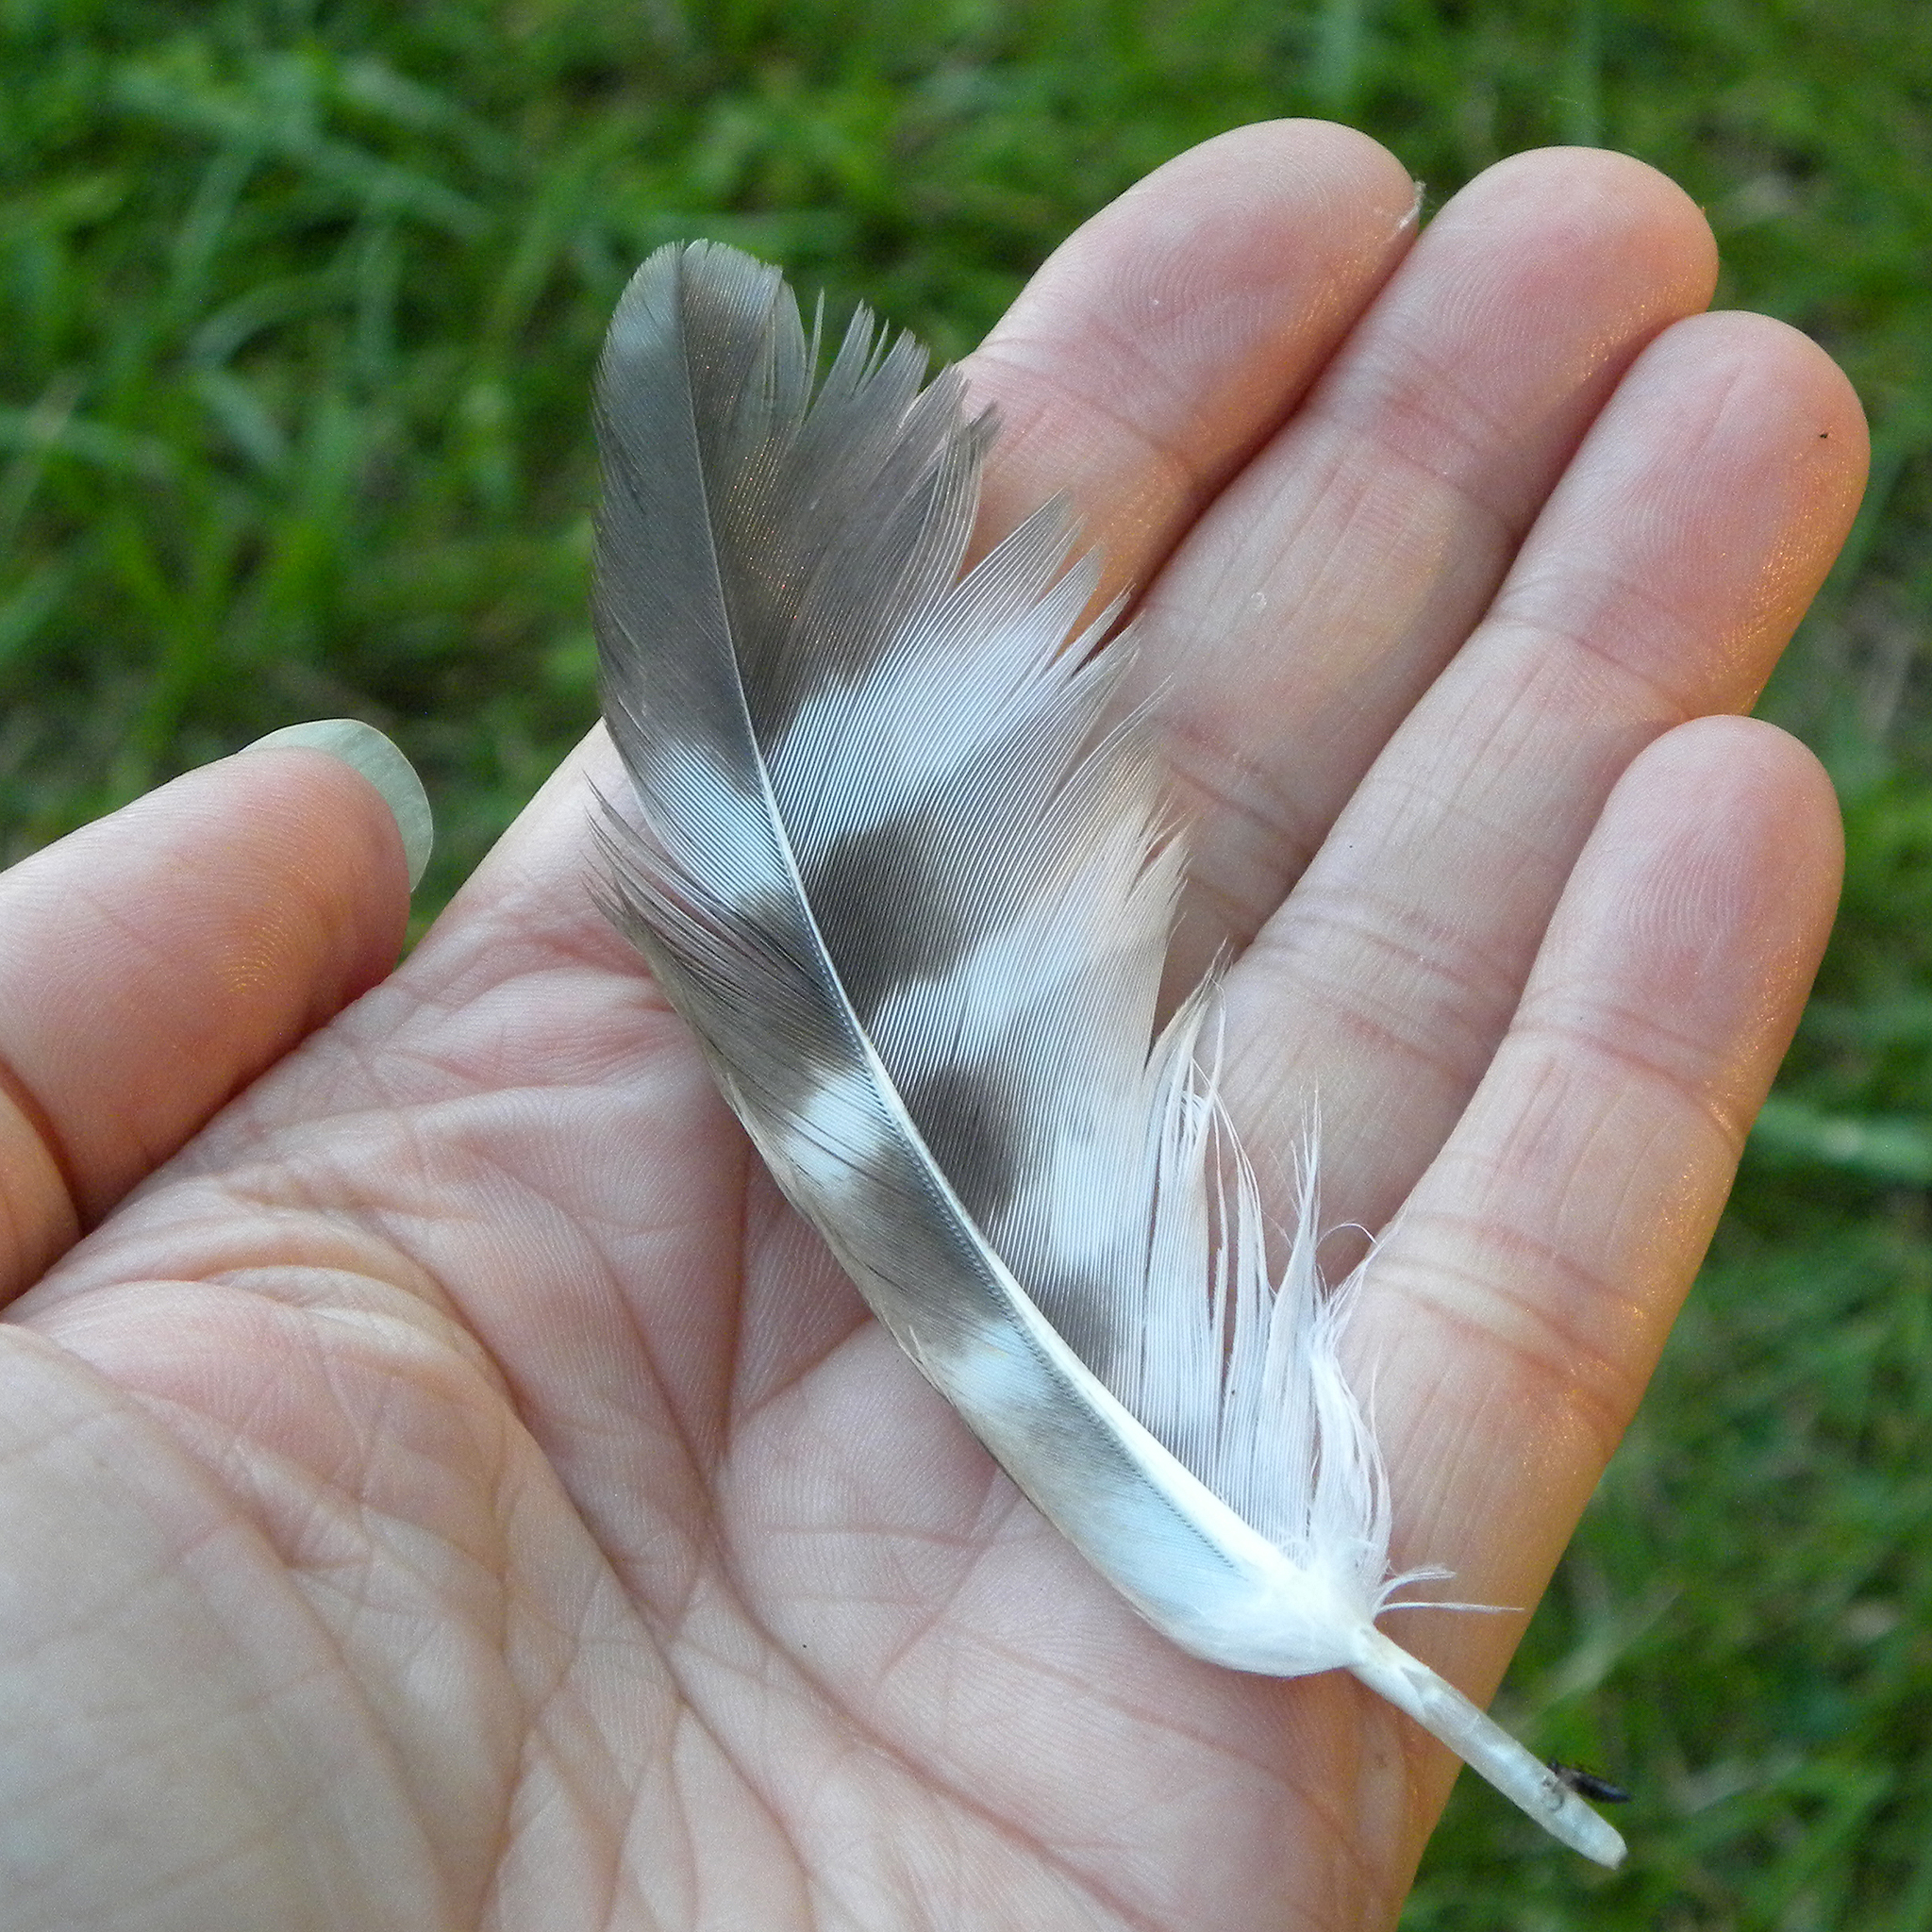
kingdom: Animalia
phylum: Chordata
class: Aves
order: Accipitriformes
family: Accipitridae
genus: Buteo
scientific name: Buteo lineatus
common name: Red-shouldered hawk
